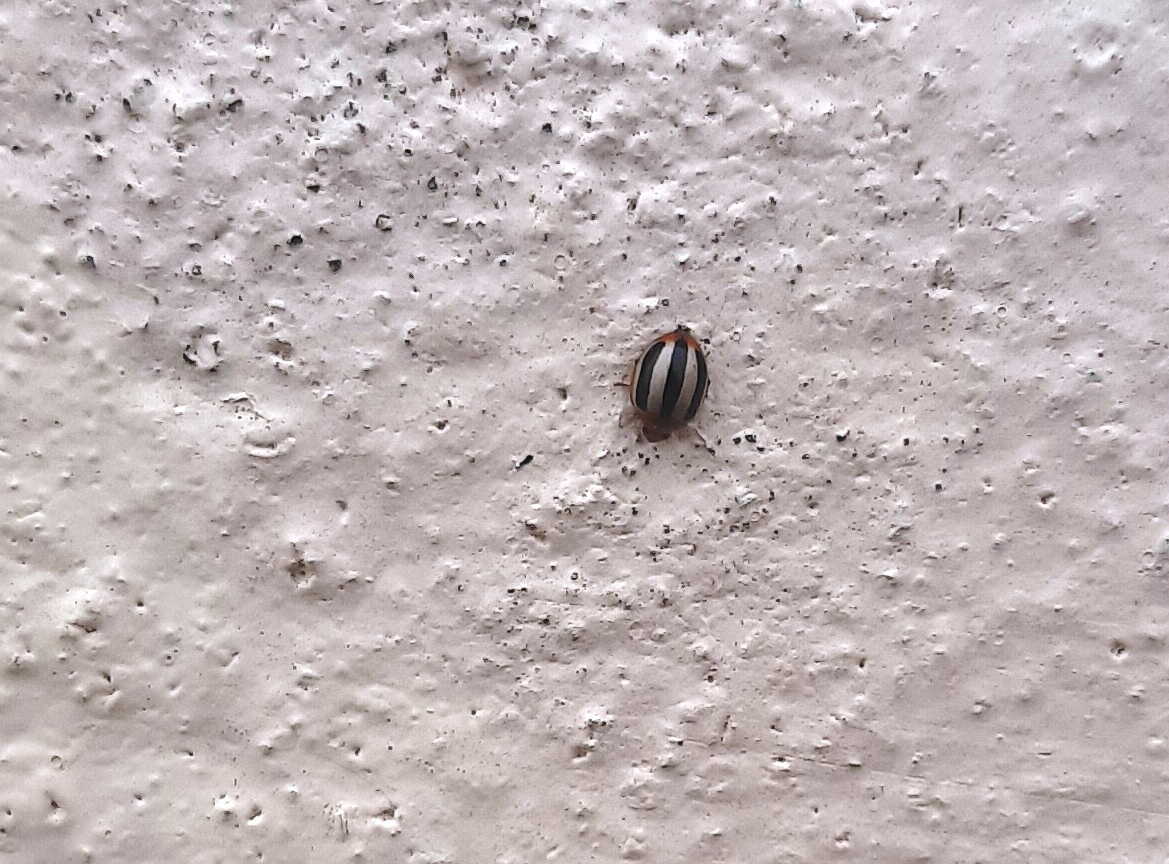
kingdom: Animalia
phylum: Arthropoda
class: Insecta
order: Coleoptera
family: Coccinellidae
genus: Brumoides
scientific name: Brumoides suturalis
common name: Threestriped lady beetle
